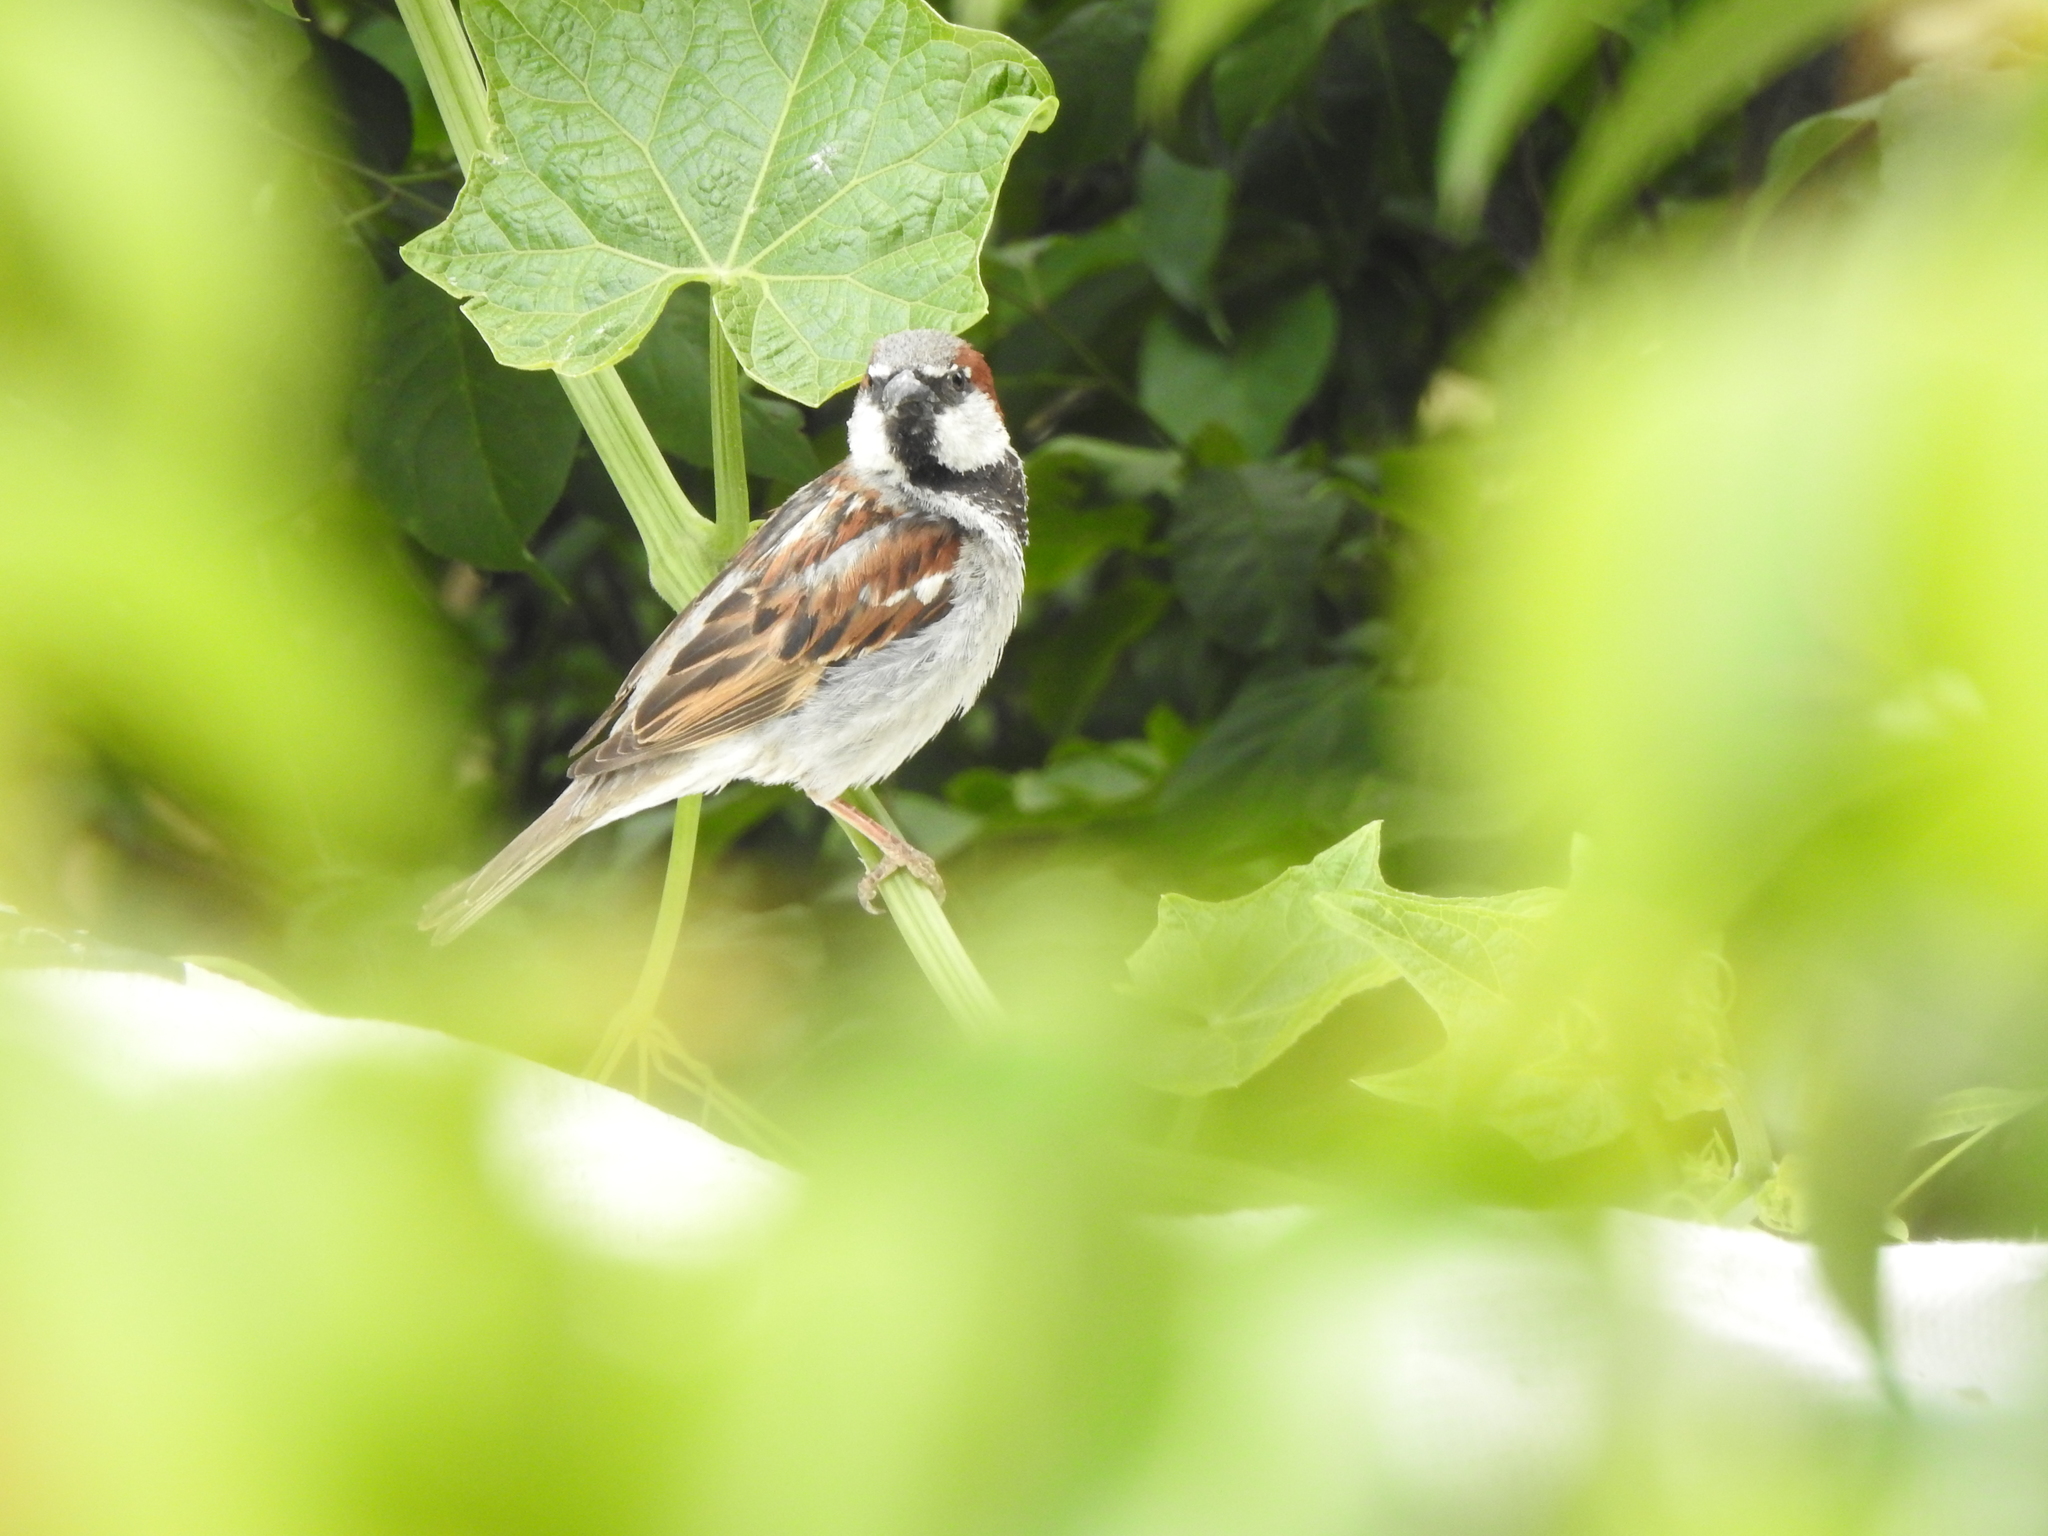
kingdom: Animalia
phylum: Chordata
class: Aves
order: Passeriformes
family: Passeridae
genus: Passer
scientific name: Passer domesticus
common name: House sparrow
